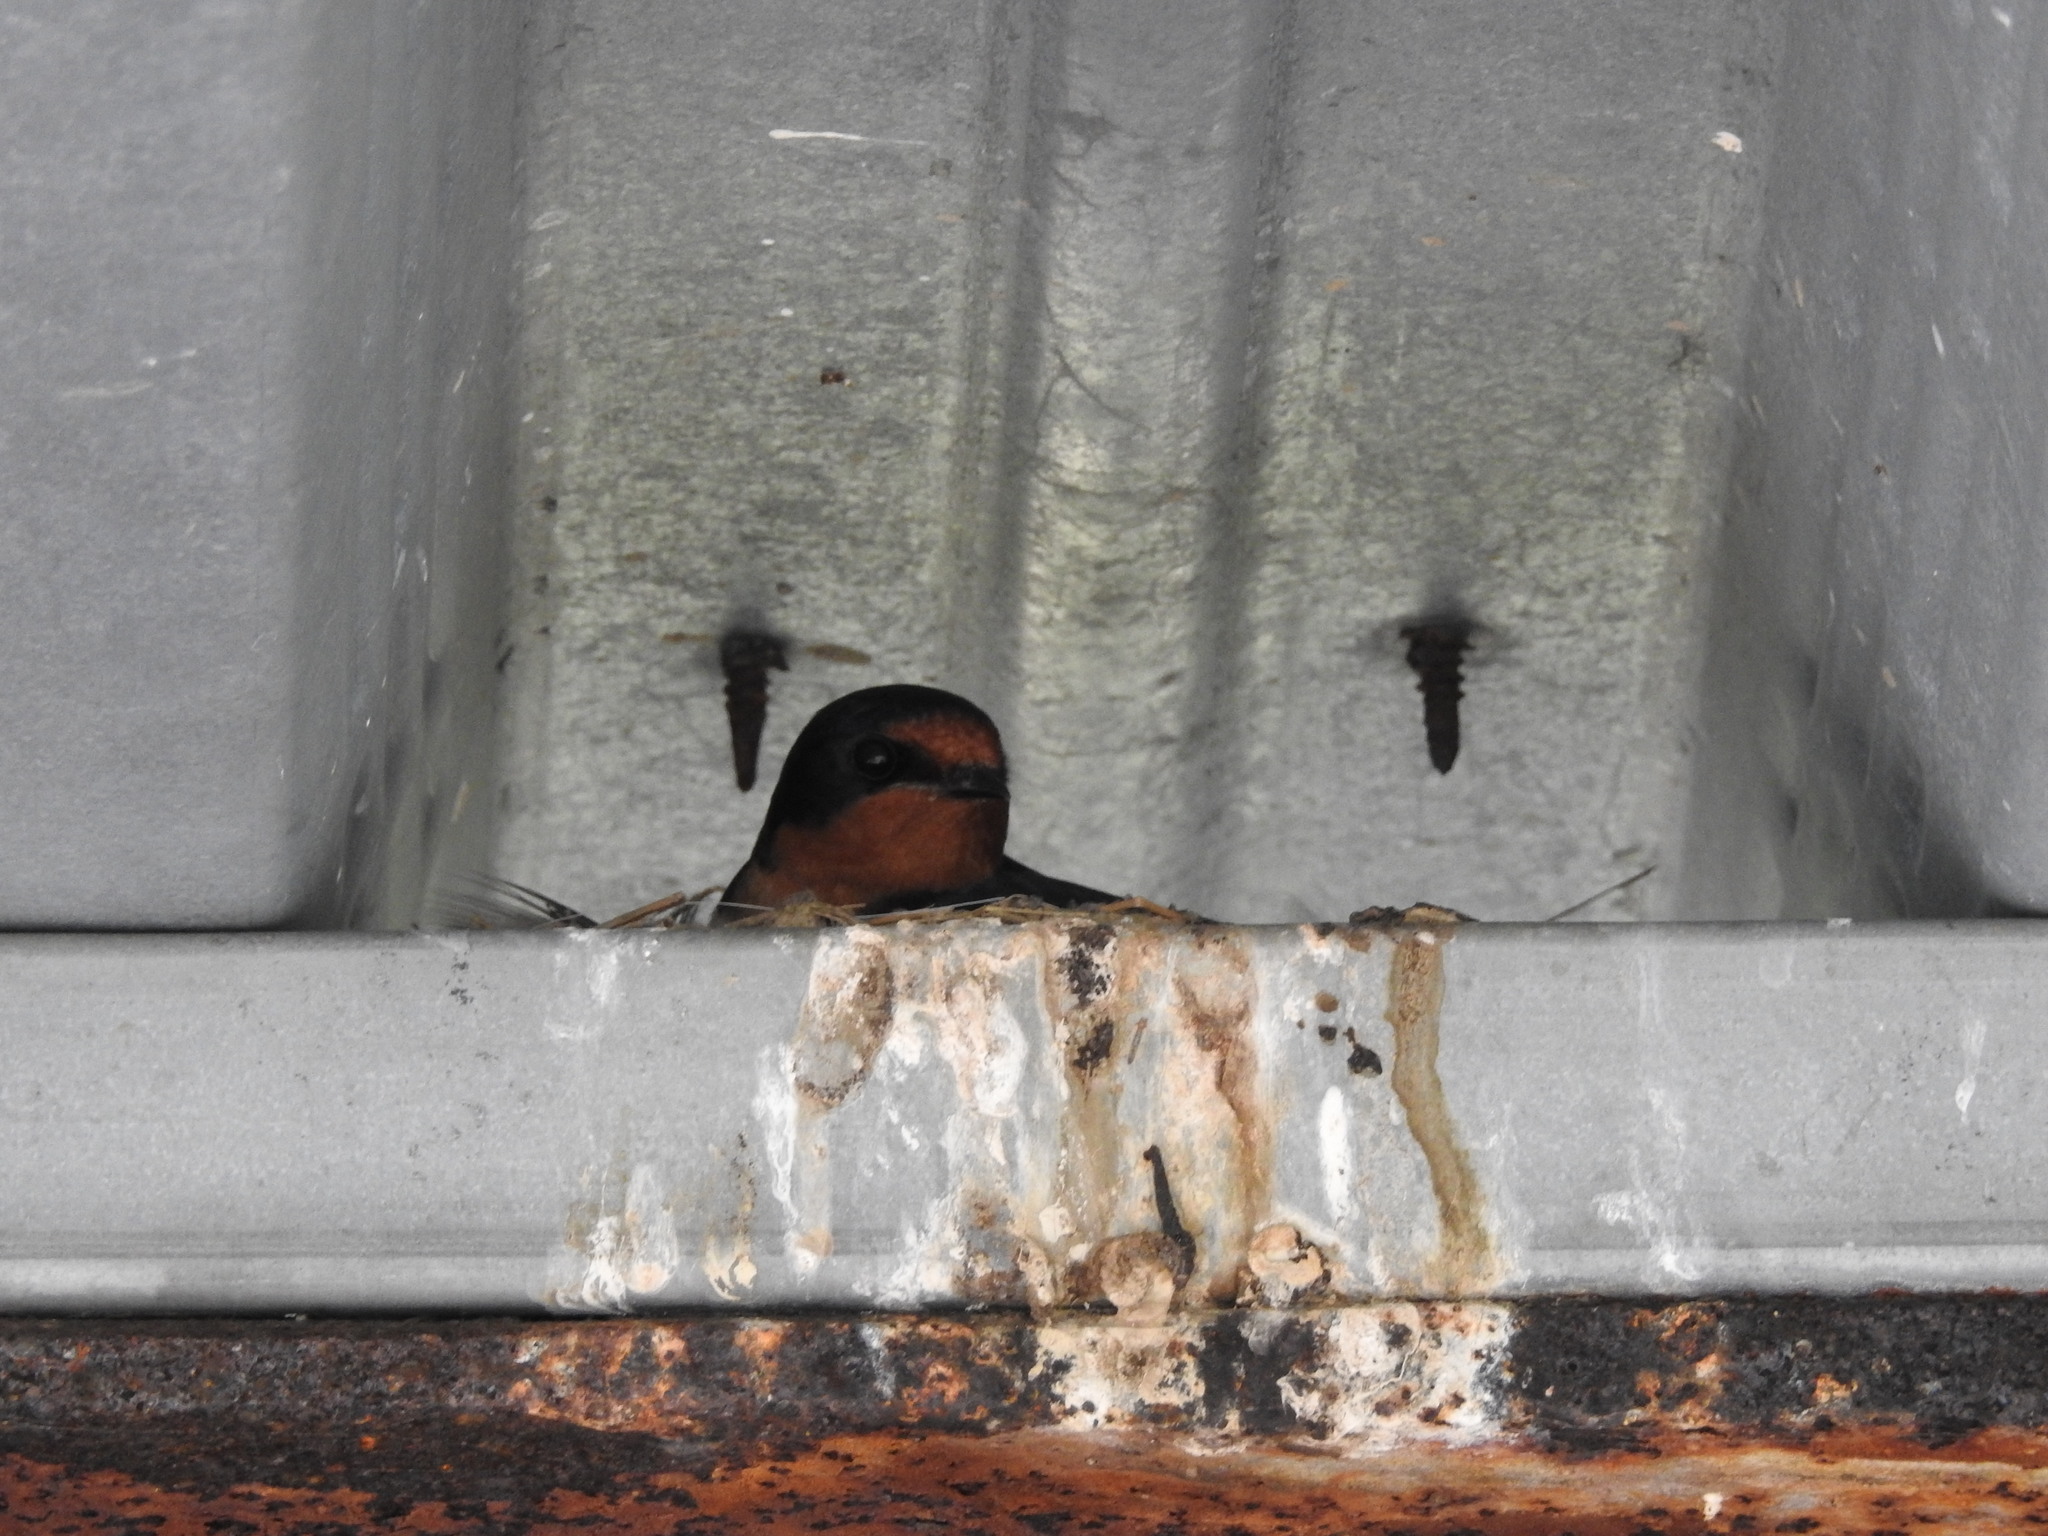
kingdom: Animalia
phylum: Chordata
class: Aves
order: Passeriformes
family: Hirundinidae
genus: Hirundo
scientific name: Hirundo rustica
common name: Barn swallow
